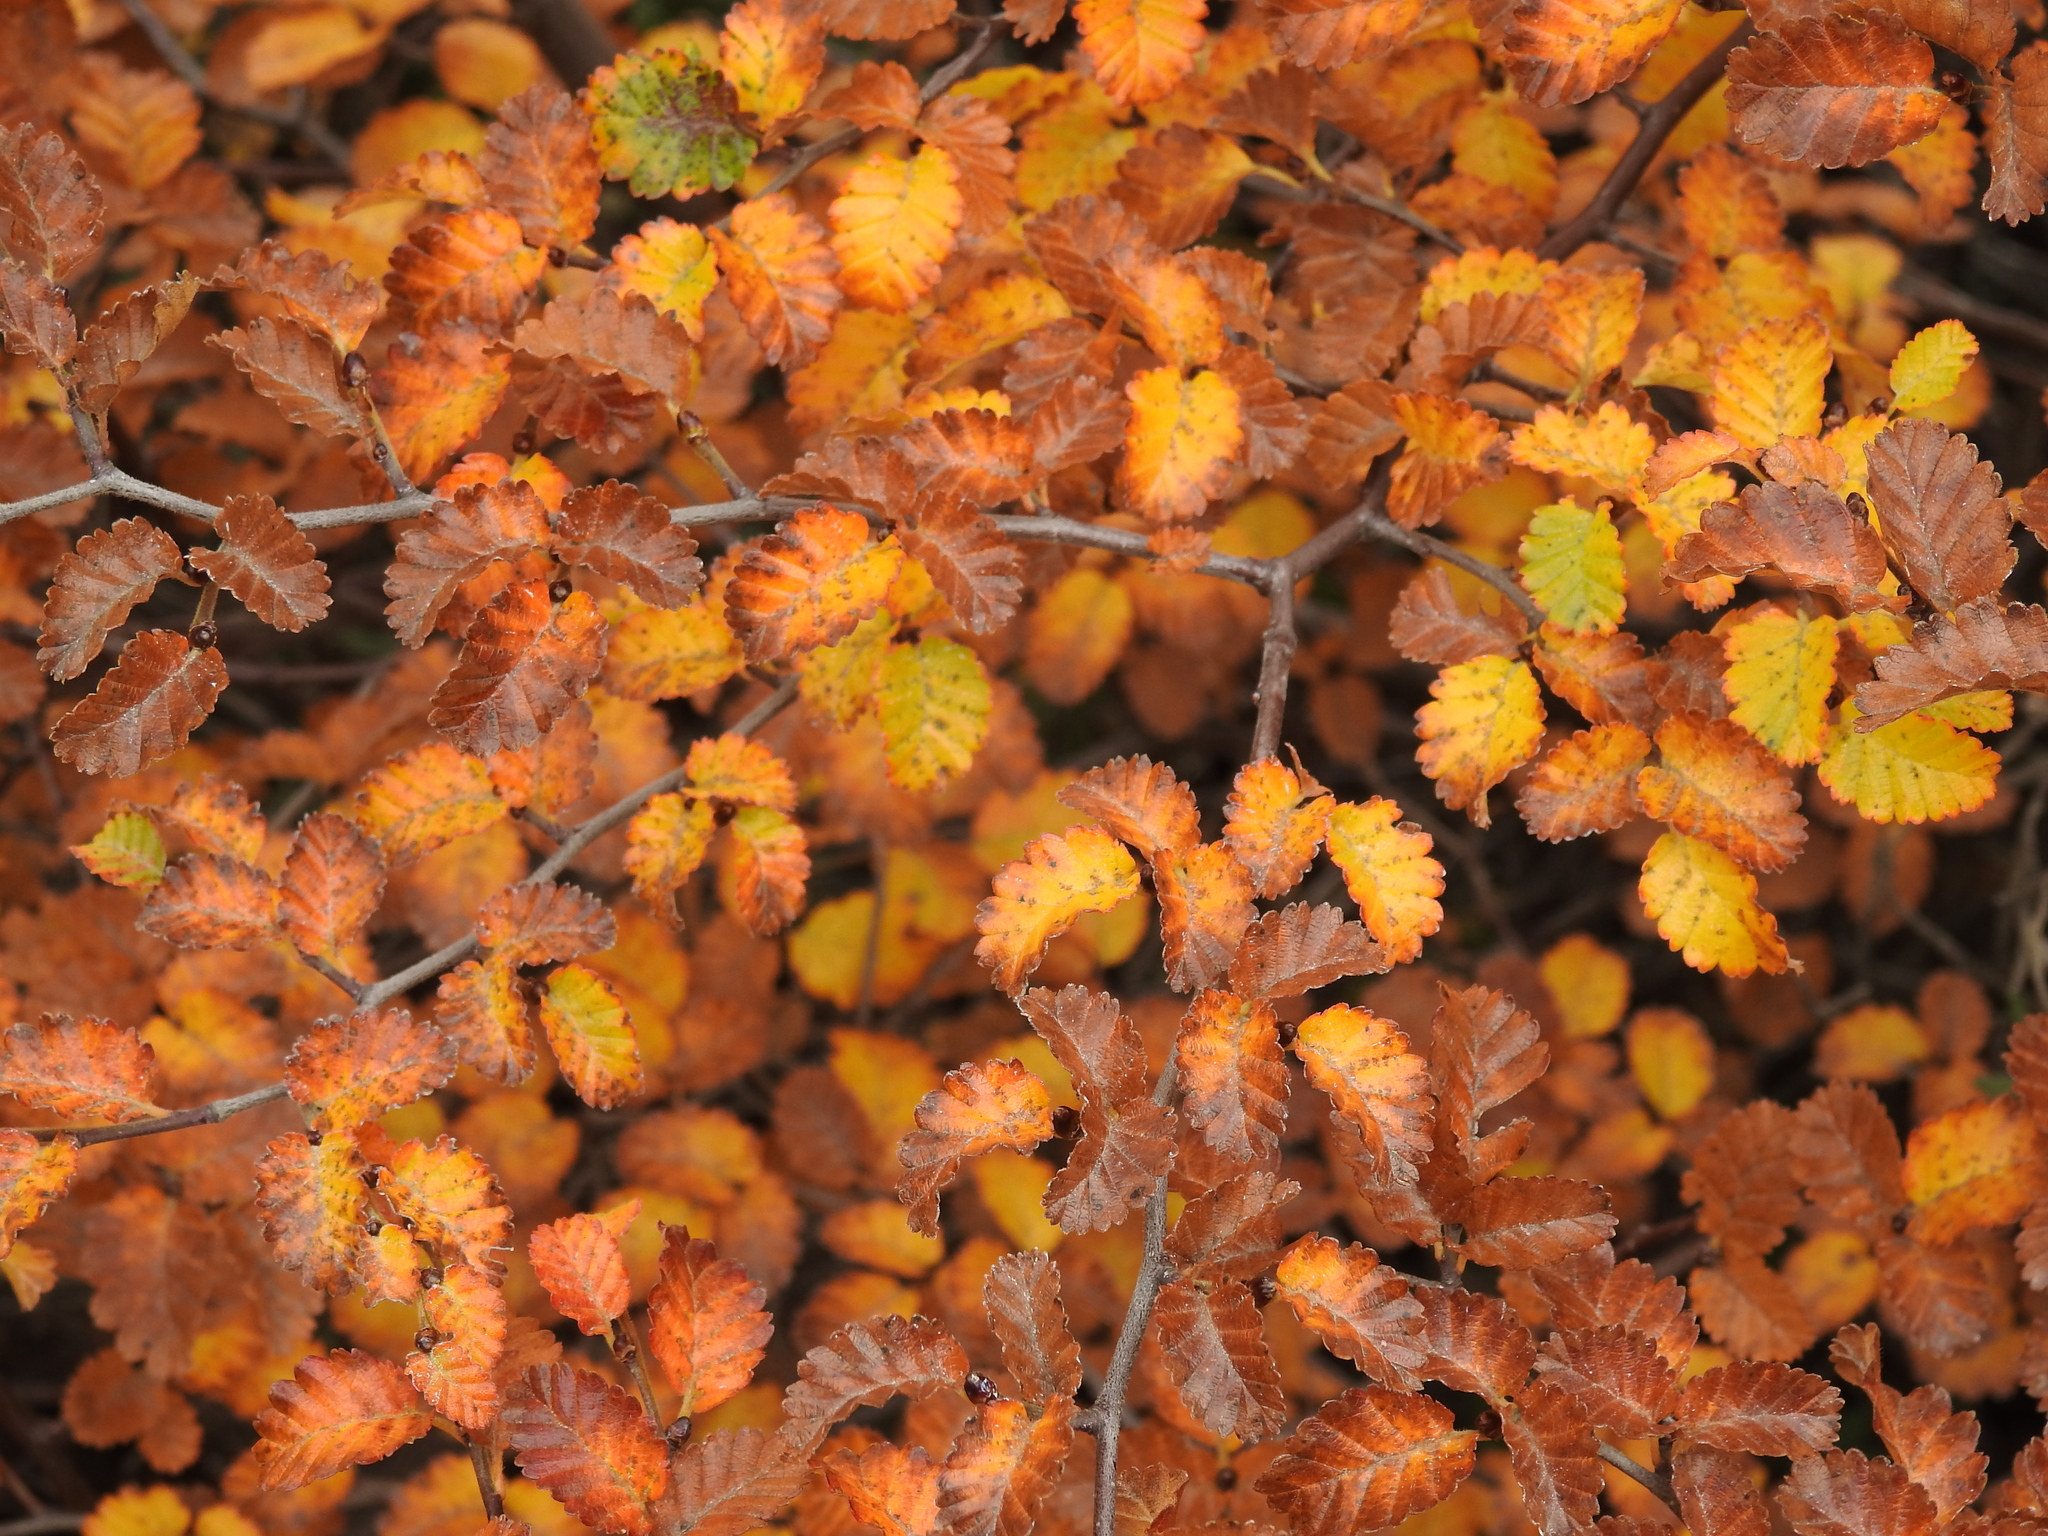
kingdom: Plantae
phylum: Tracheophyta
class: Magnoliopsida
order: Fagales
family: Nothofagaceae
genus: Nothofagus
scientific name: Nothofagus pumilio
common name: Lenga beech
